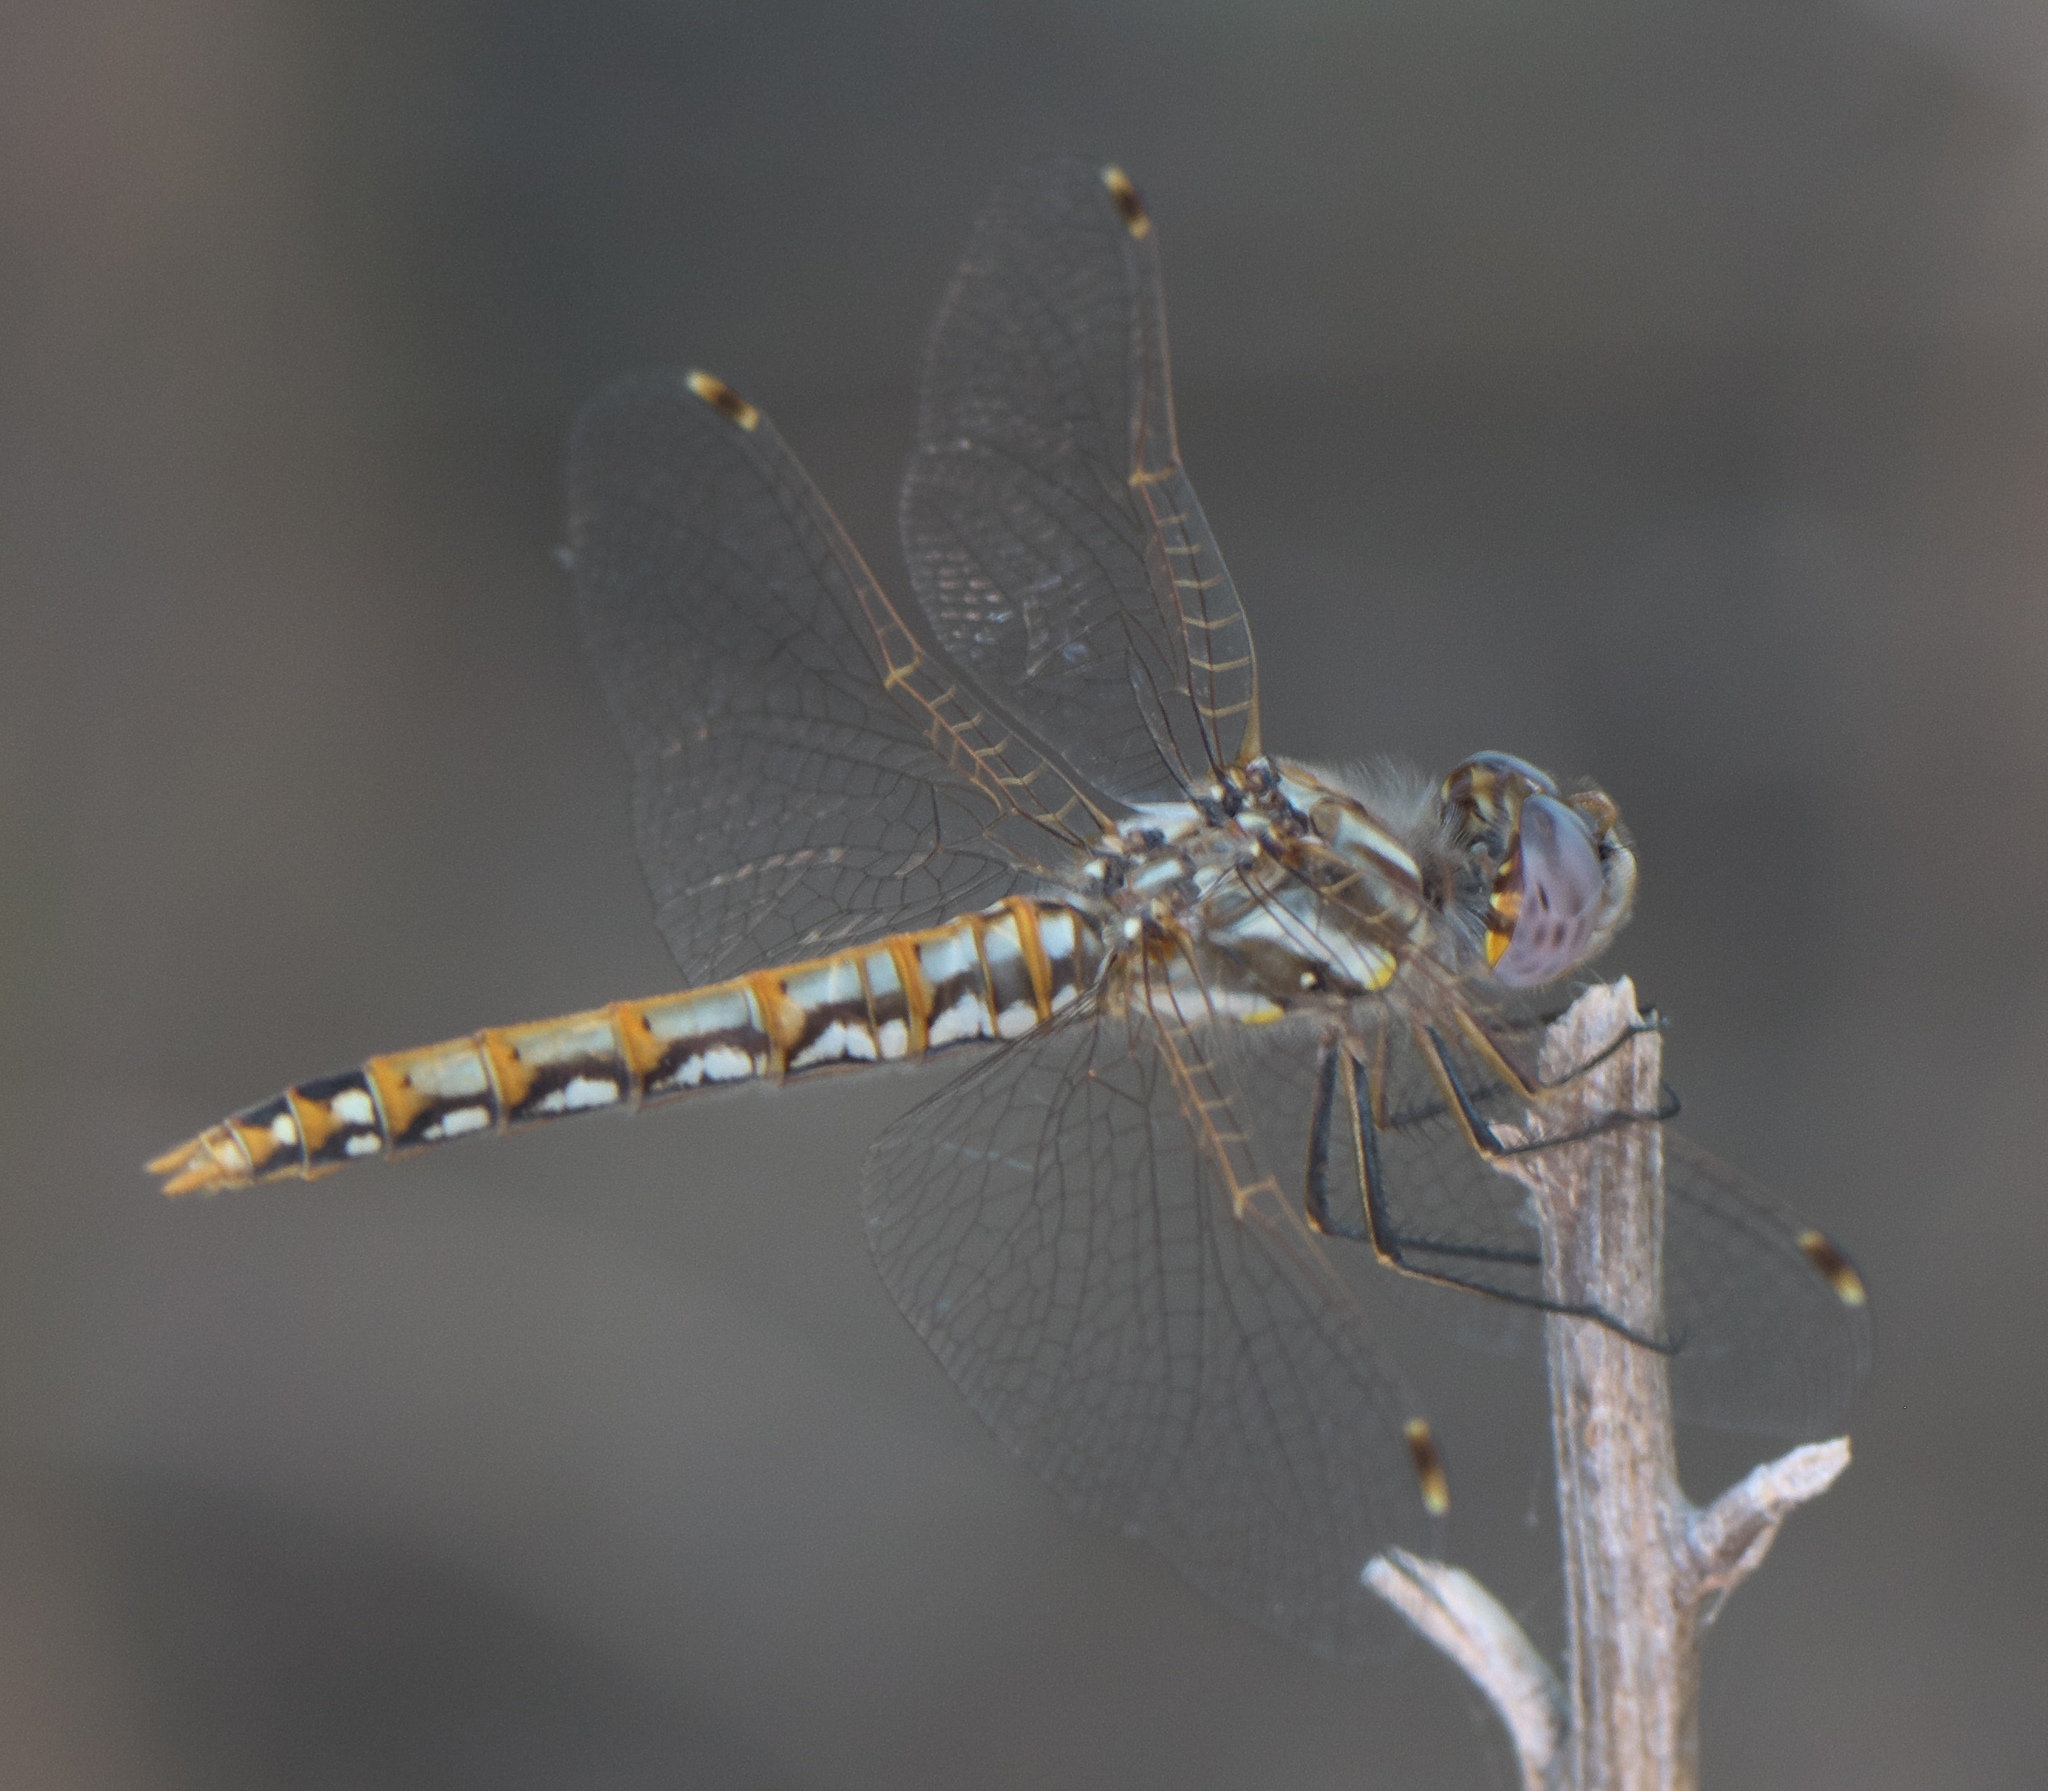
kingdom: Animalia
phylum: Arthropoda
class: Insecta
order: Odonata
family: Libellulidae
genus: Sympetrum
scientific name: Sympetrum corruptum
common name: Variegated meadowhawk
